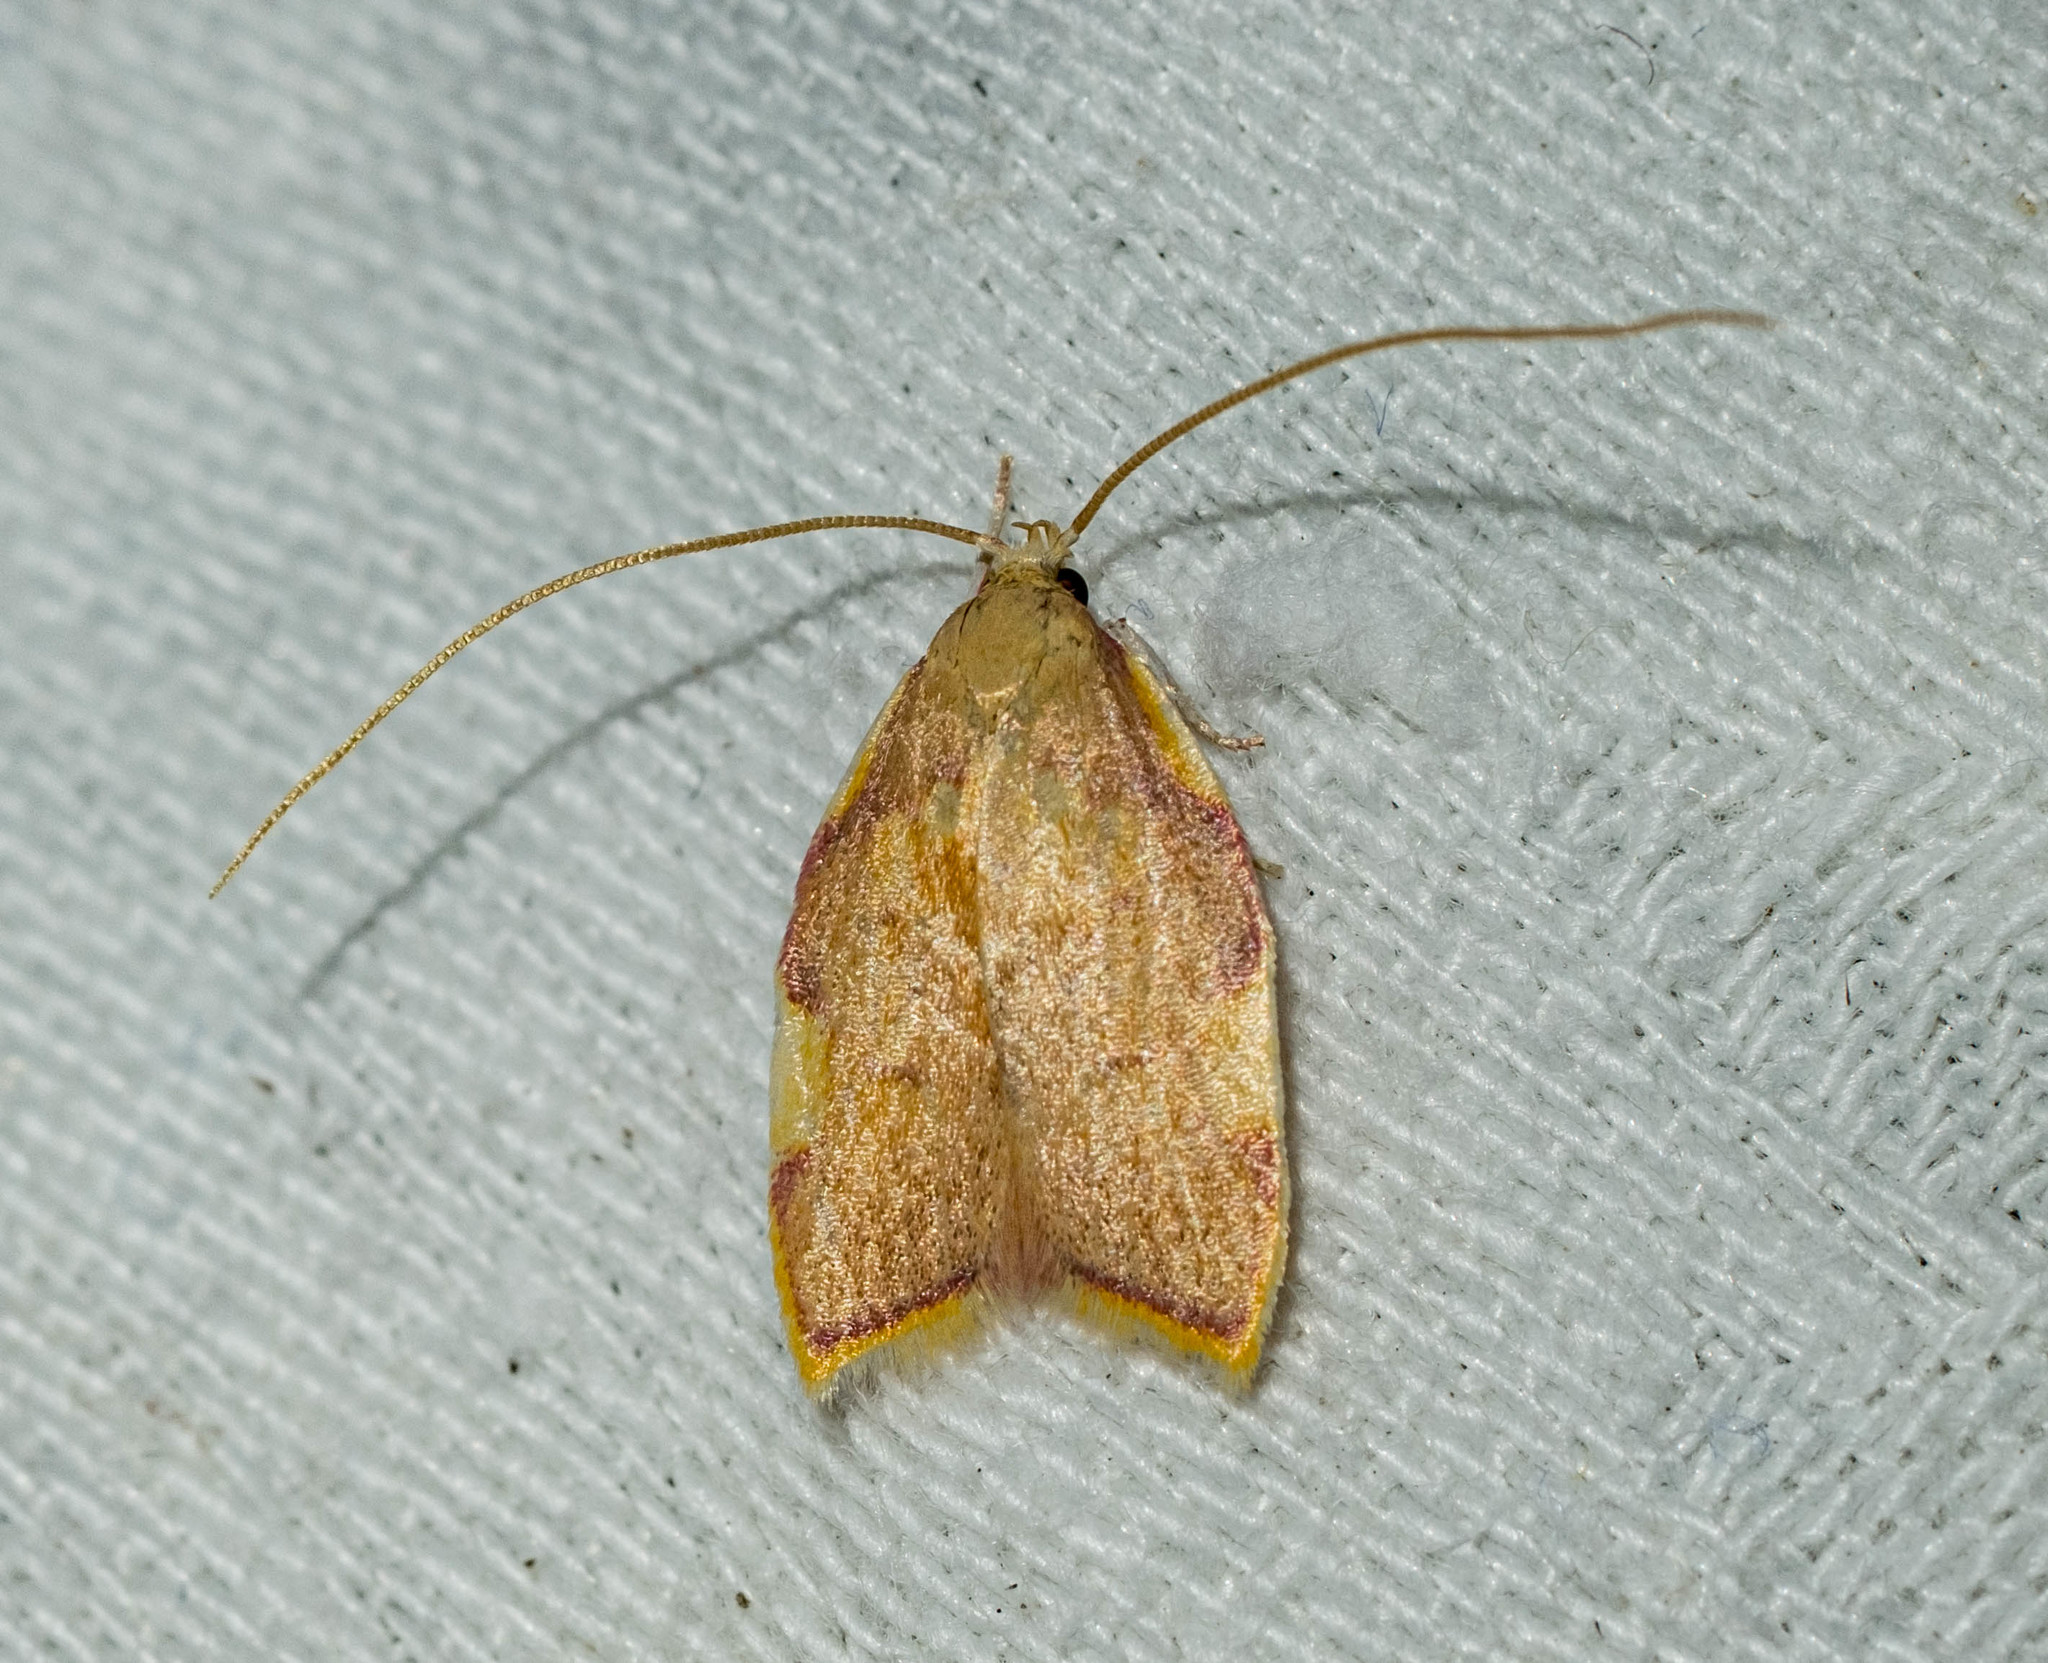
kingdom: Animalia
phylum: Arthropoda
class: Insecta
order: Lepidoptera
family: Peleopodidae
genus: Carcina
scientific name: Carcina quercana
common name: Moth
